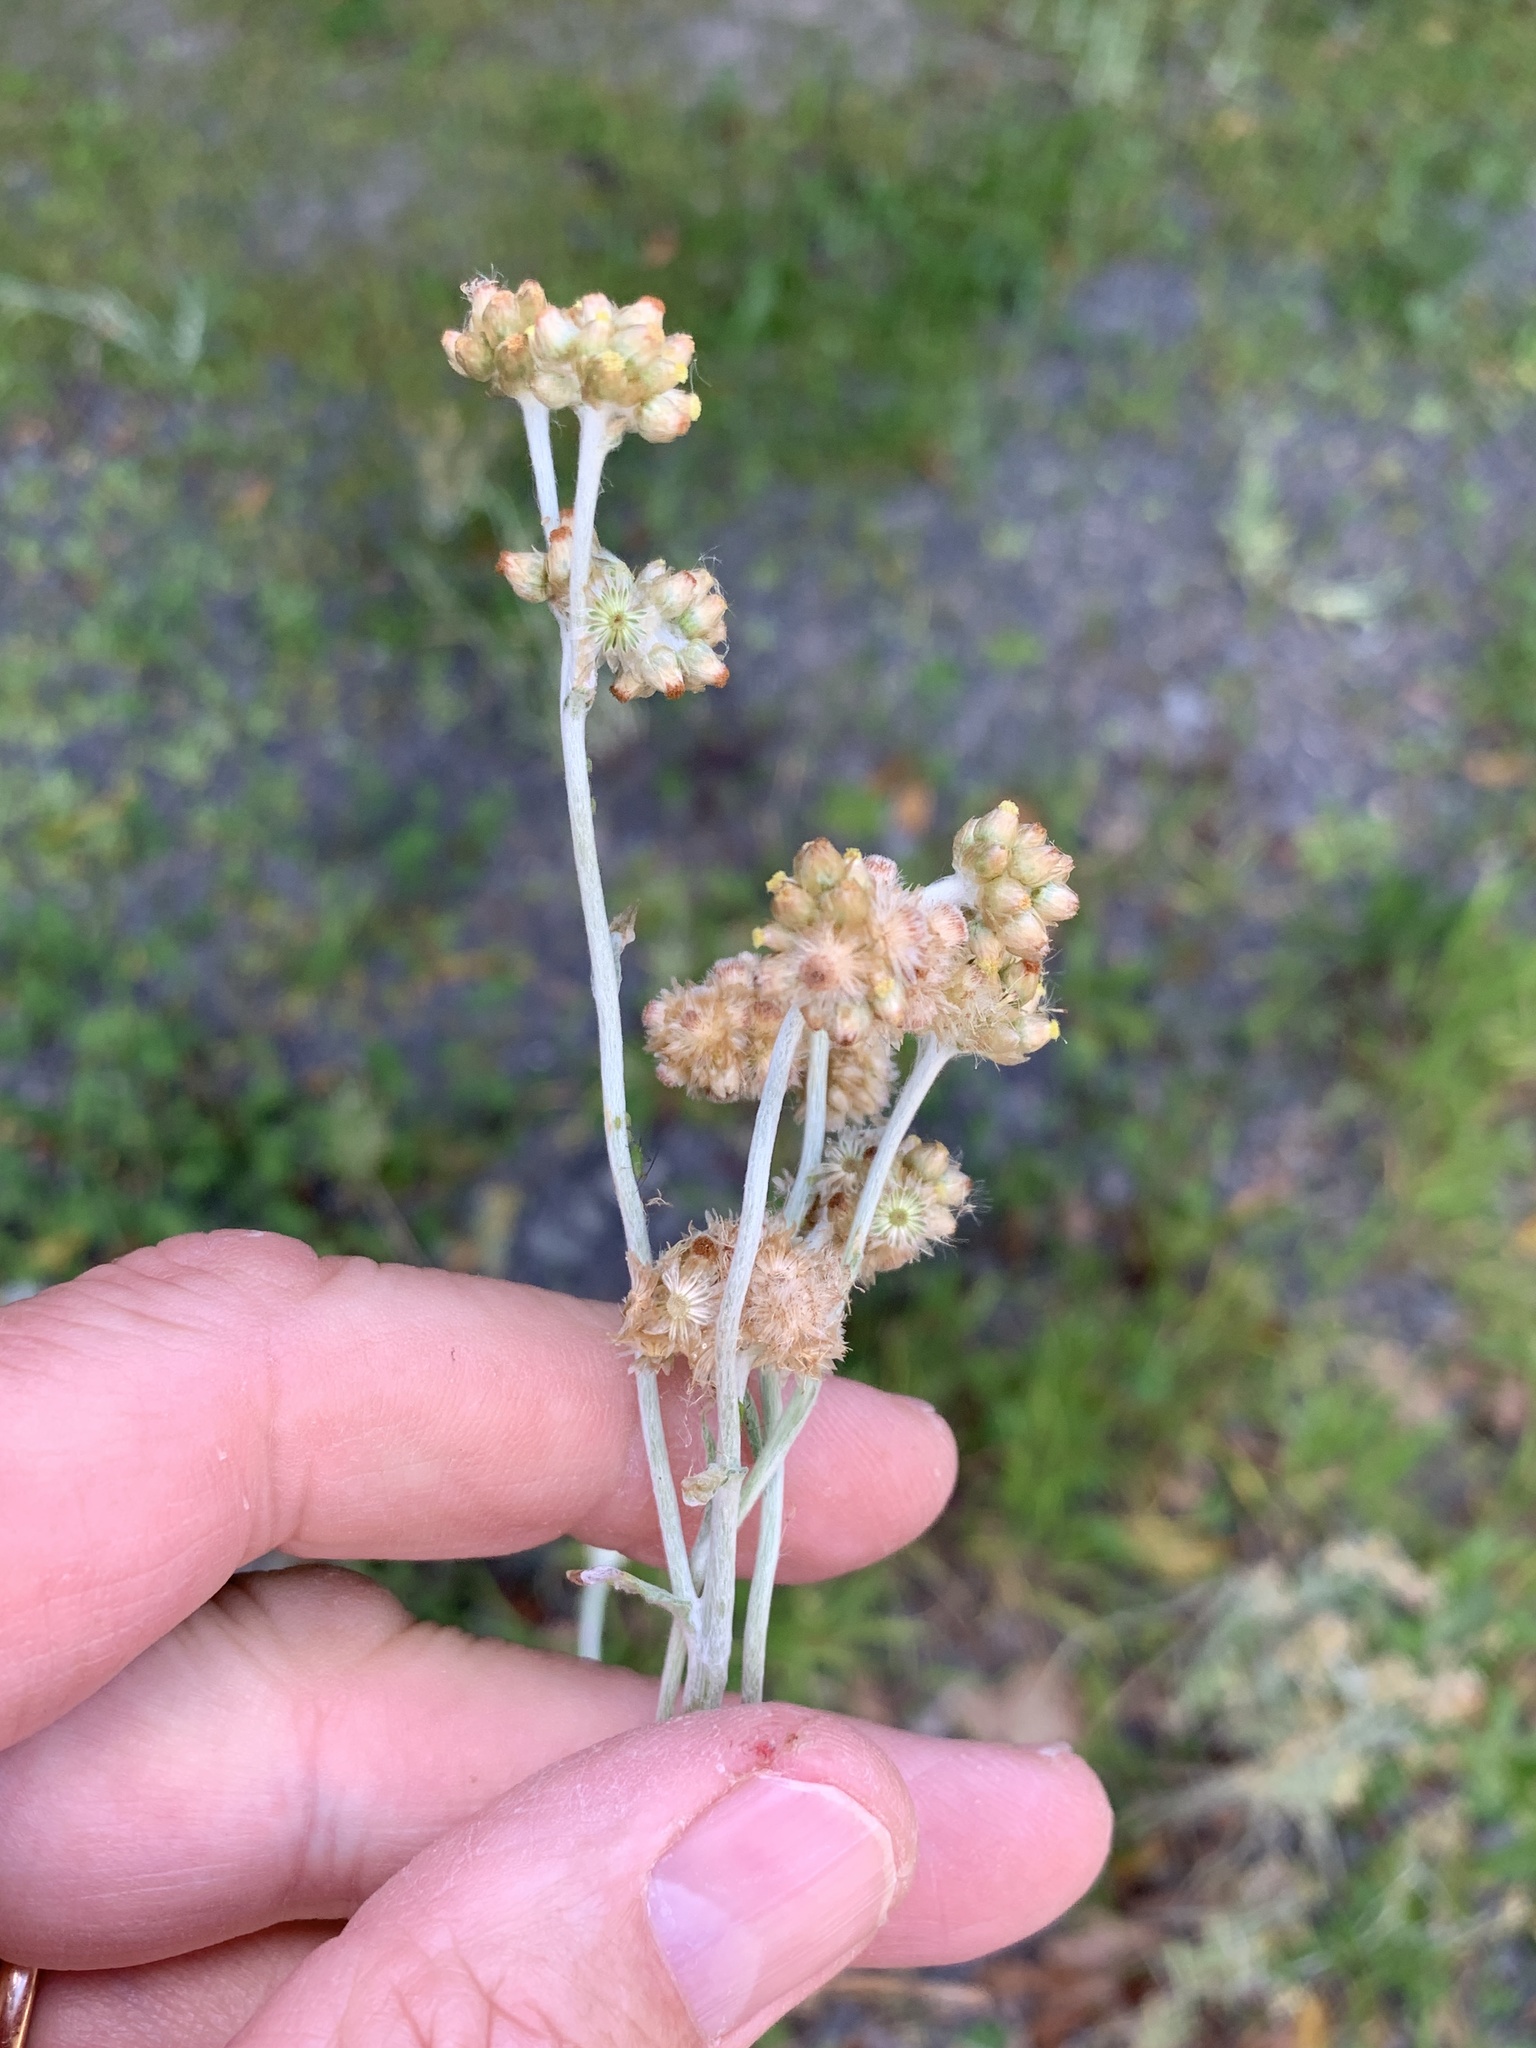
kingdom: Plantae
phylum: Tracheophyta
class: Magnoliopsida
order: Asterales
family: Asteraceae
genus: Helichrysum
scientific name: Helichrysum luteoalbum
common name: Daisy
